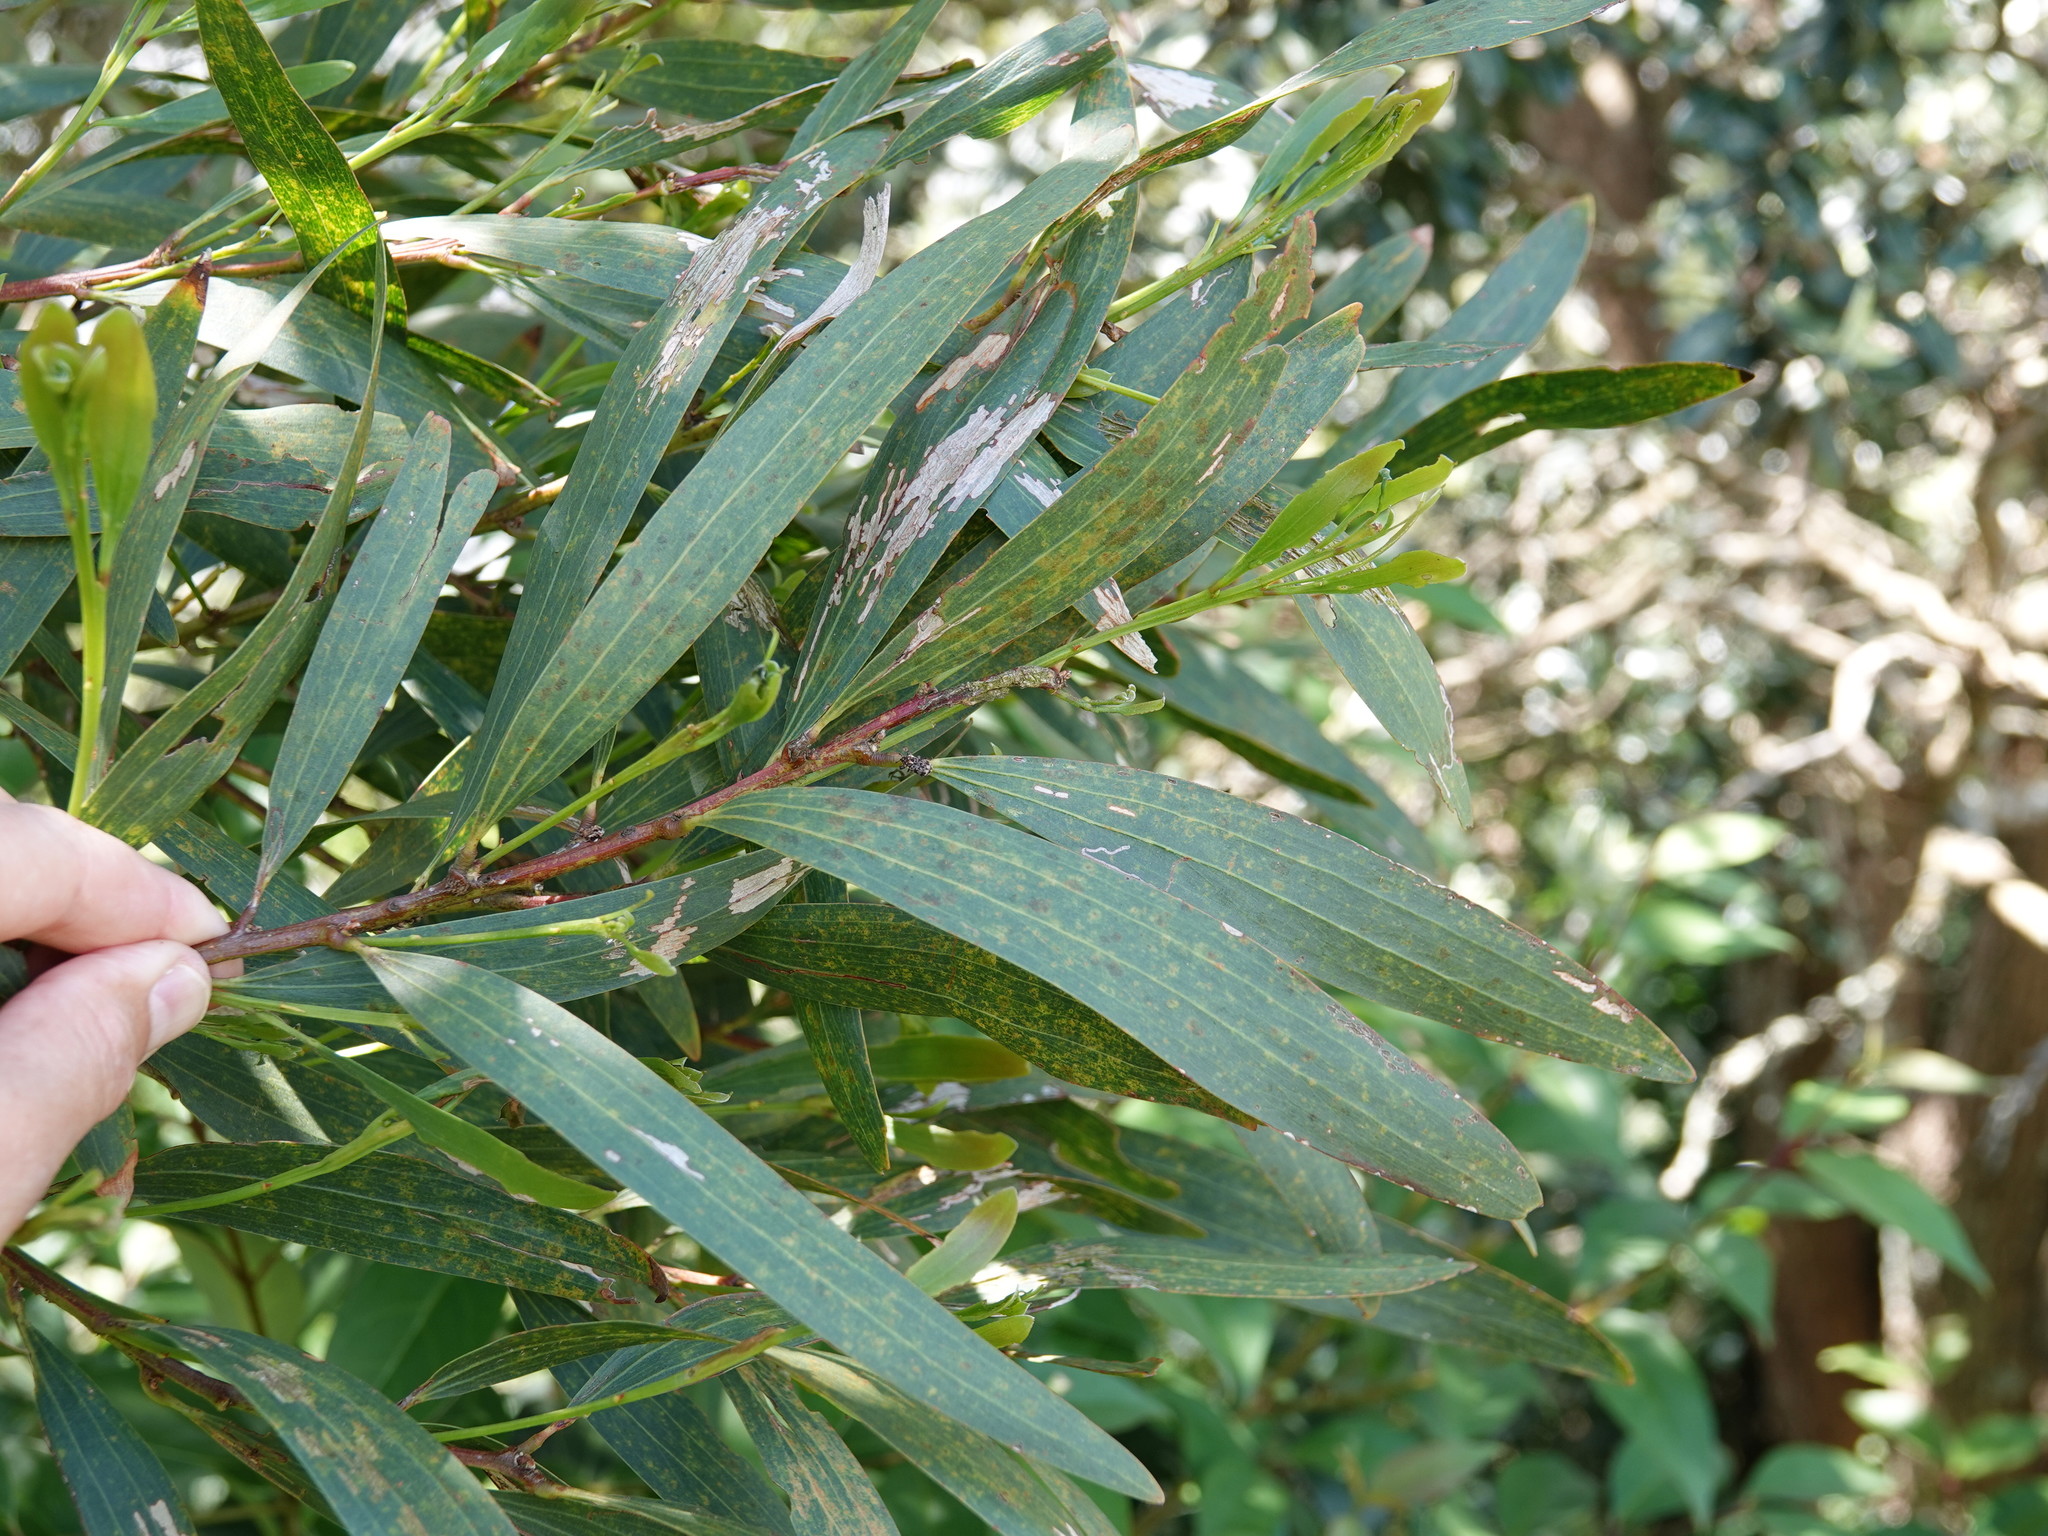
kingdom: Plantae
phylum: Tracheophyta
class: Magnoliopsida
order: Fabales
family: Fabaceae
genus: Acacia
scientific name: Acacia longifolia
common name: Sydney golden wattle
